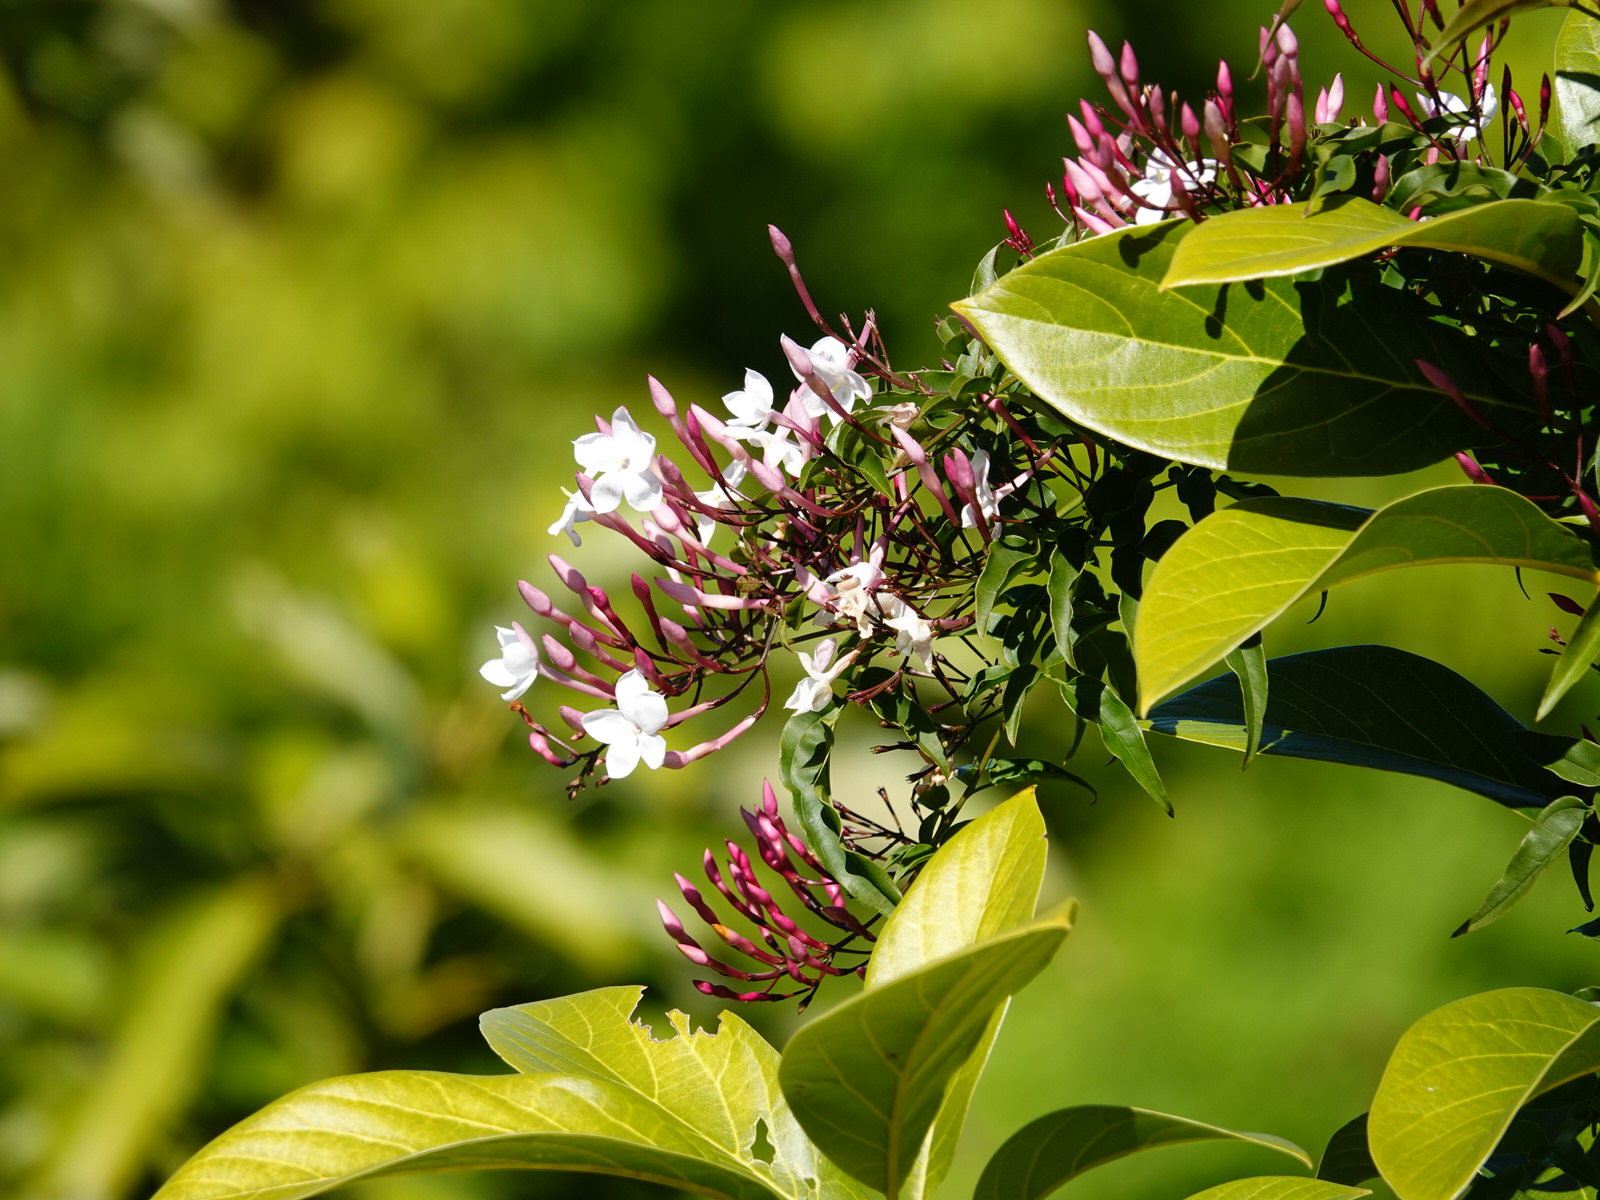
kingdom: Plantae
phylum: Tracheophyta
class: Magnoliopsida
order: Lamiales
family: Oleaceae
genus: Jasminum
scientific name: Jasminum polyanthum
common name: Pink jasmine
